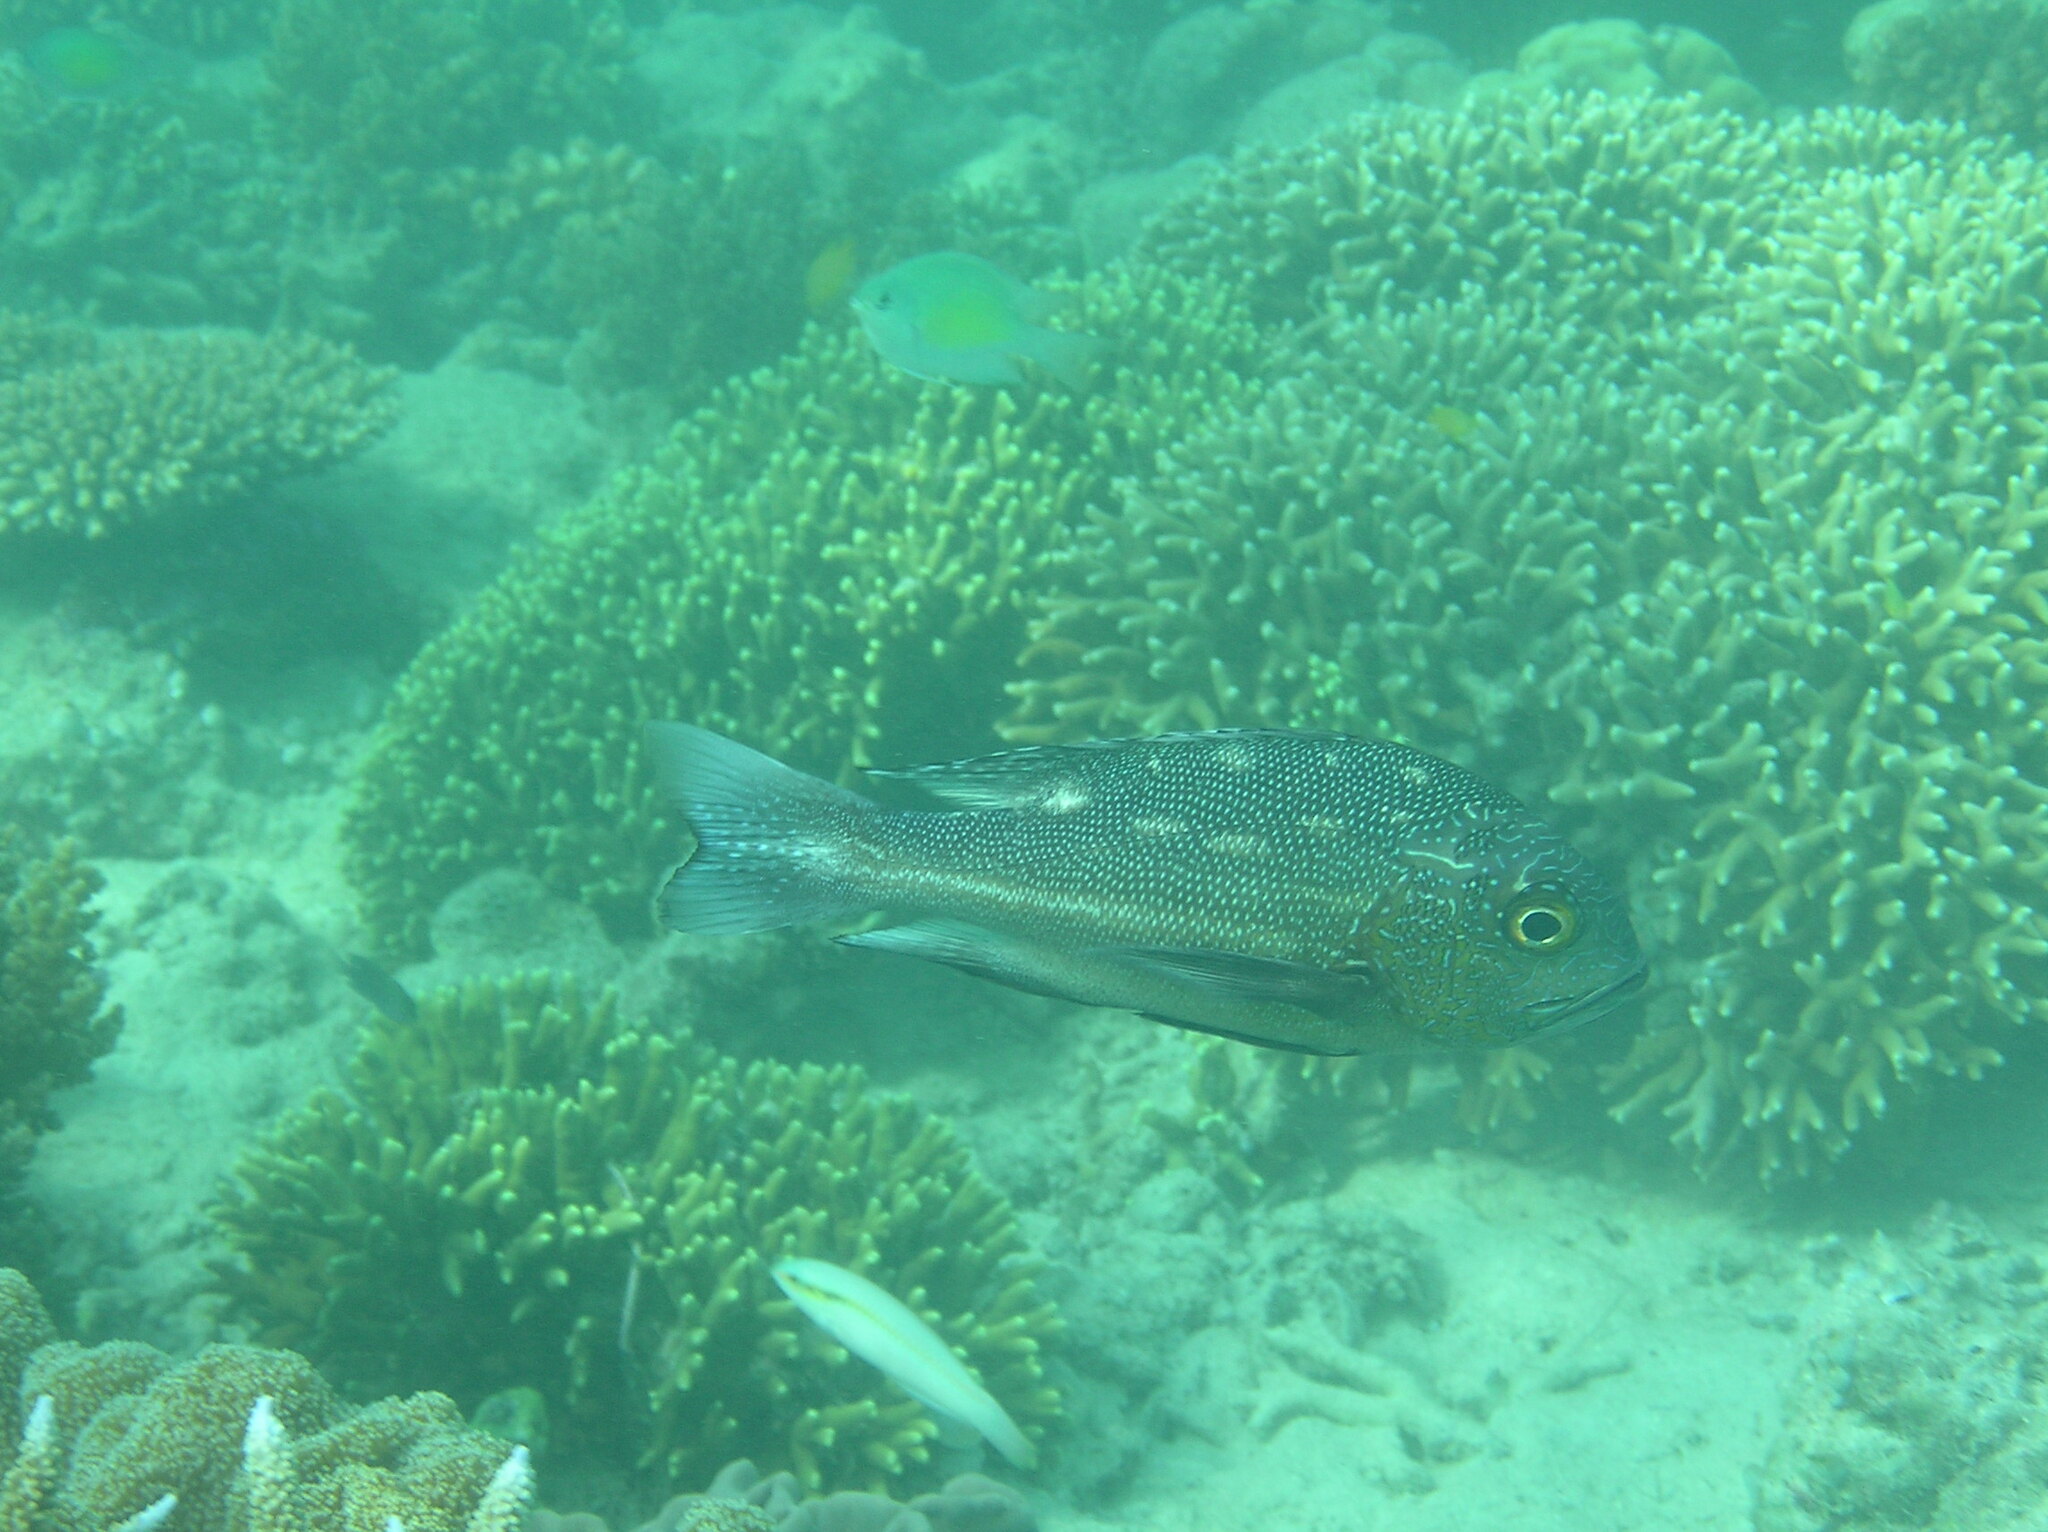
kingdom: Animalia
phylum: Chordata
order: Perciformes
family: Lutjanidae
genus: Macolor
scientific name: Macolor macularis
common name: Midnight snapper
